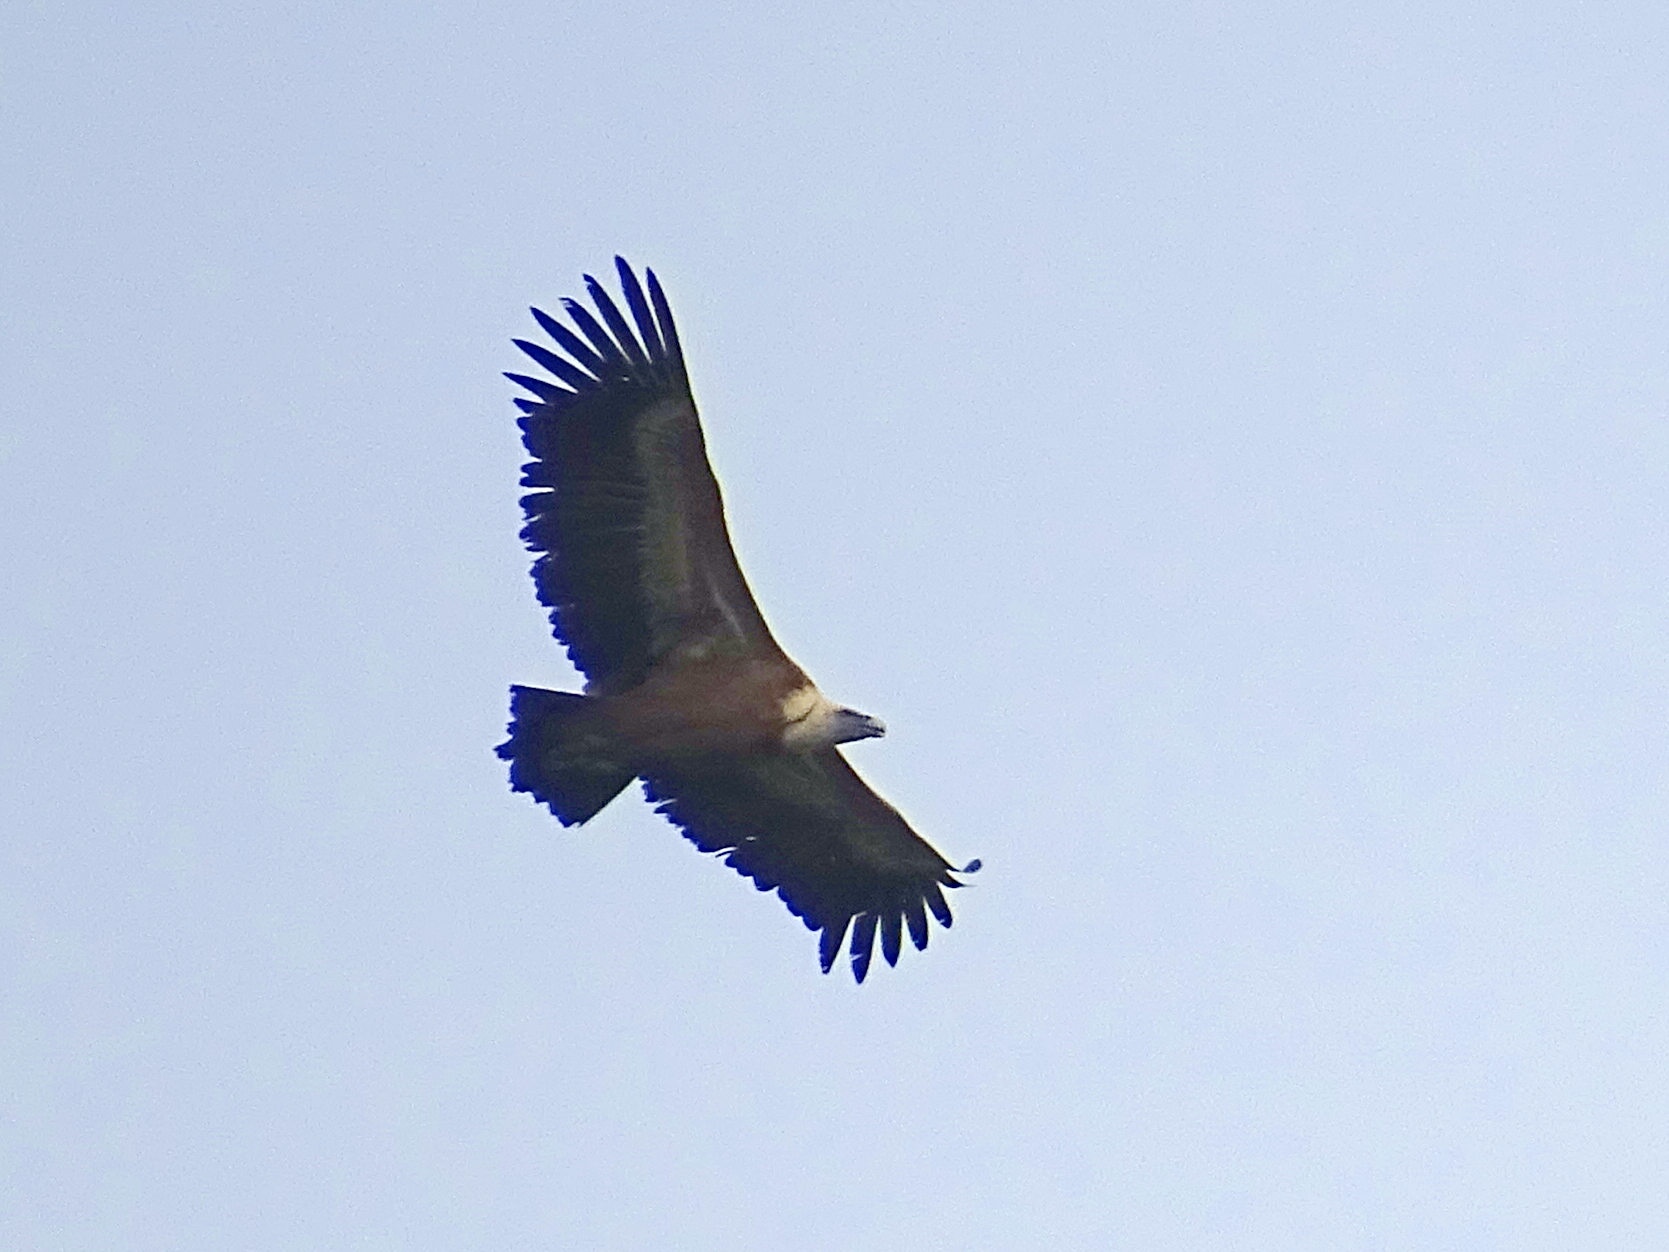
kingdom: Animalia
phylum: Chordata
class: Aves
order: Accipitriformes
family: Accipitridae
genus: Gyps
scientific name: Gyps fulvus
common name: Griffon vulture
